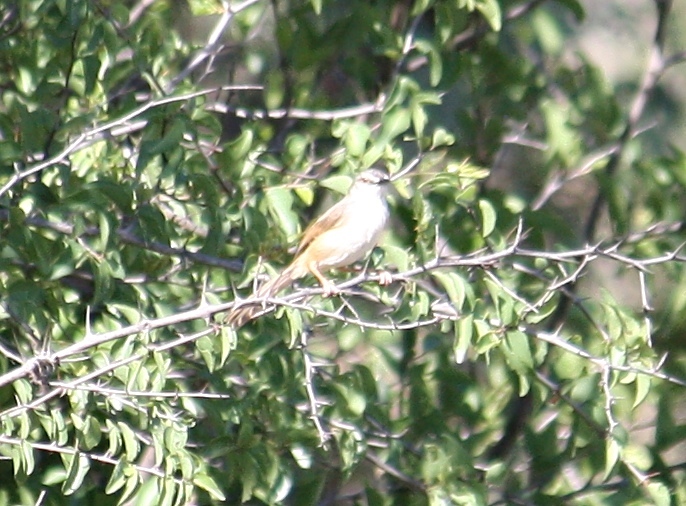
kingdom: Animalia
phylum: Chordata
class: Aves
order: Passeriformes
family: Cisticolidae
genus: Prinia
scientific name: Prinia subflava
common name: Tawny-flanked prinia
